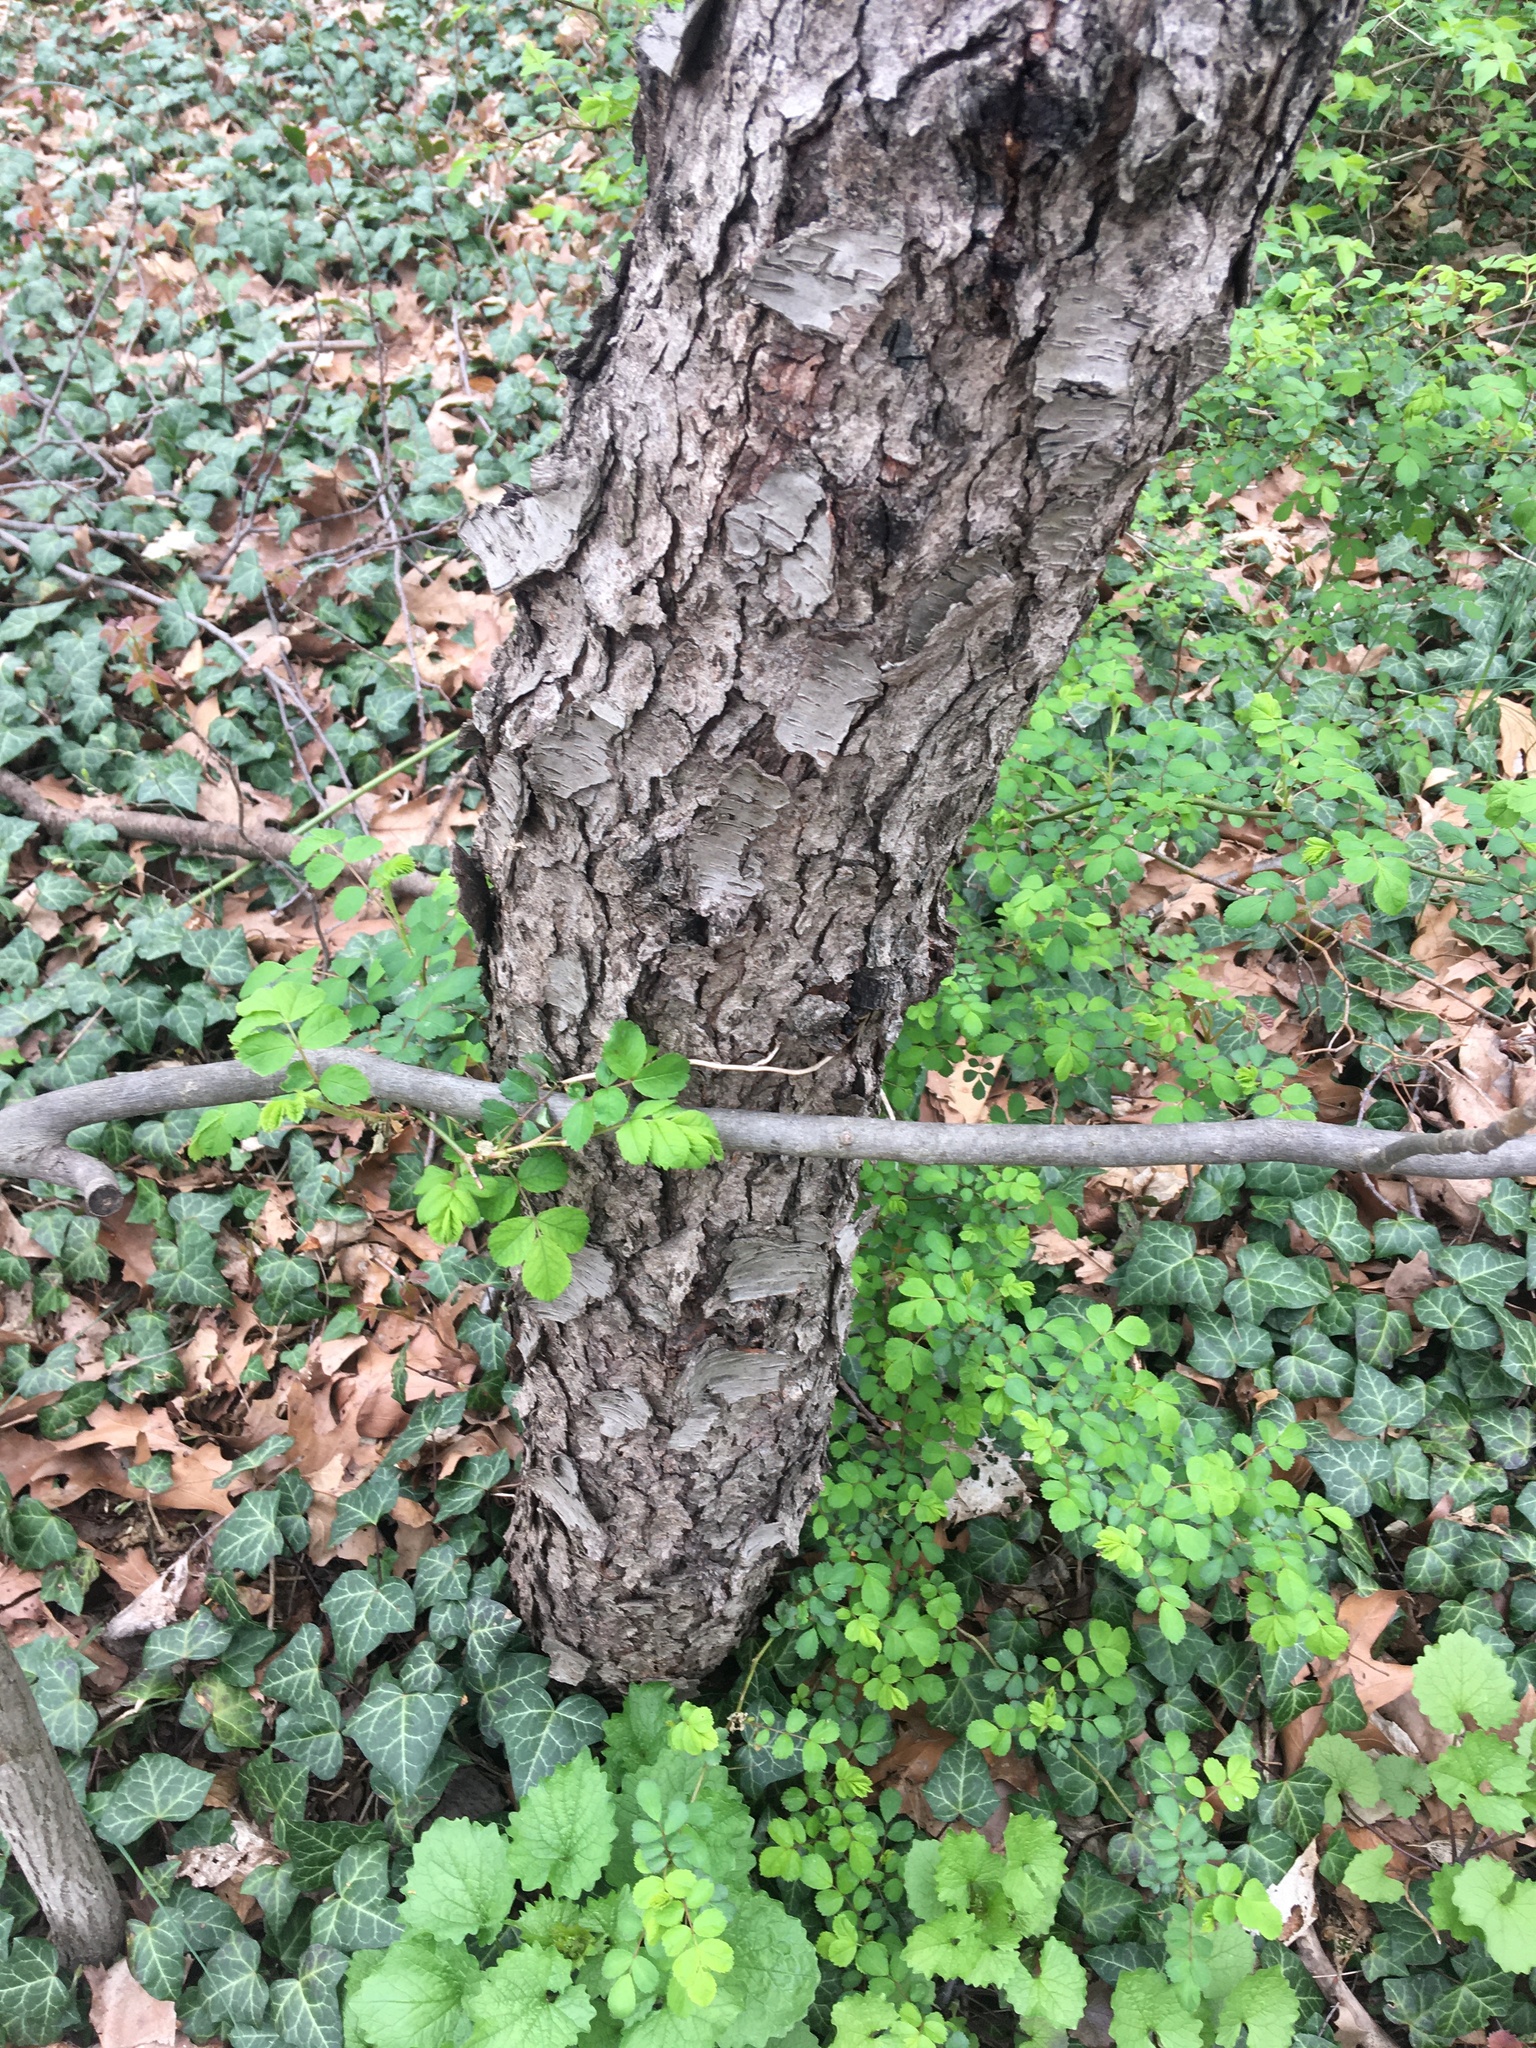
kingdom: Plantae
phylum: Tracheophyta
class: Magnoliopsida
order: Rosales
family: Rosaceae
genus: Prunus
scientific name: Prunus serotina
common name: Black cherry
